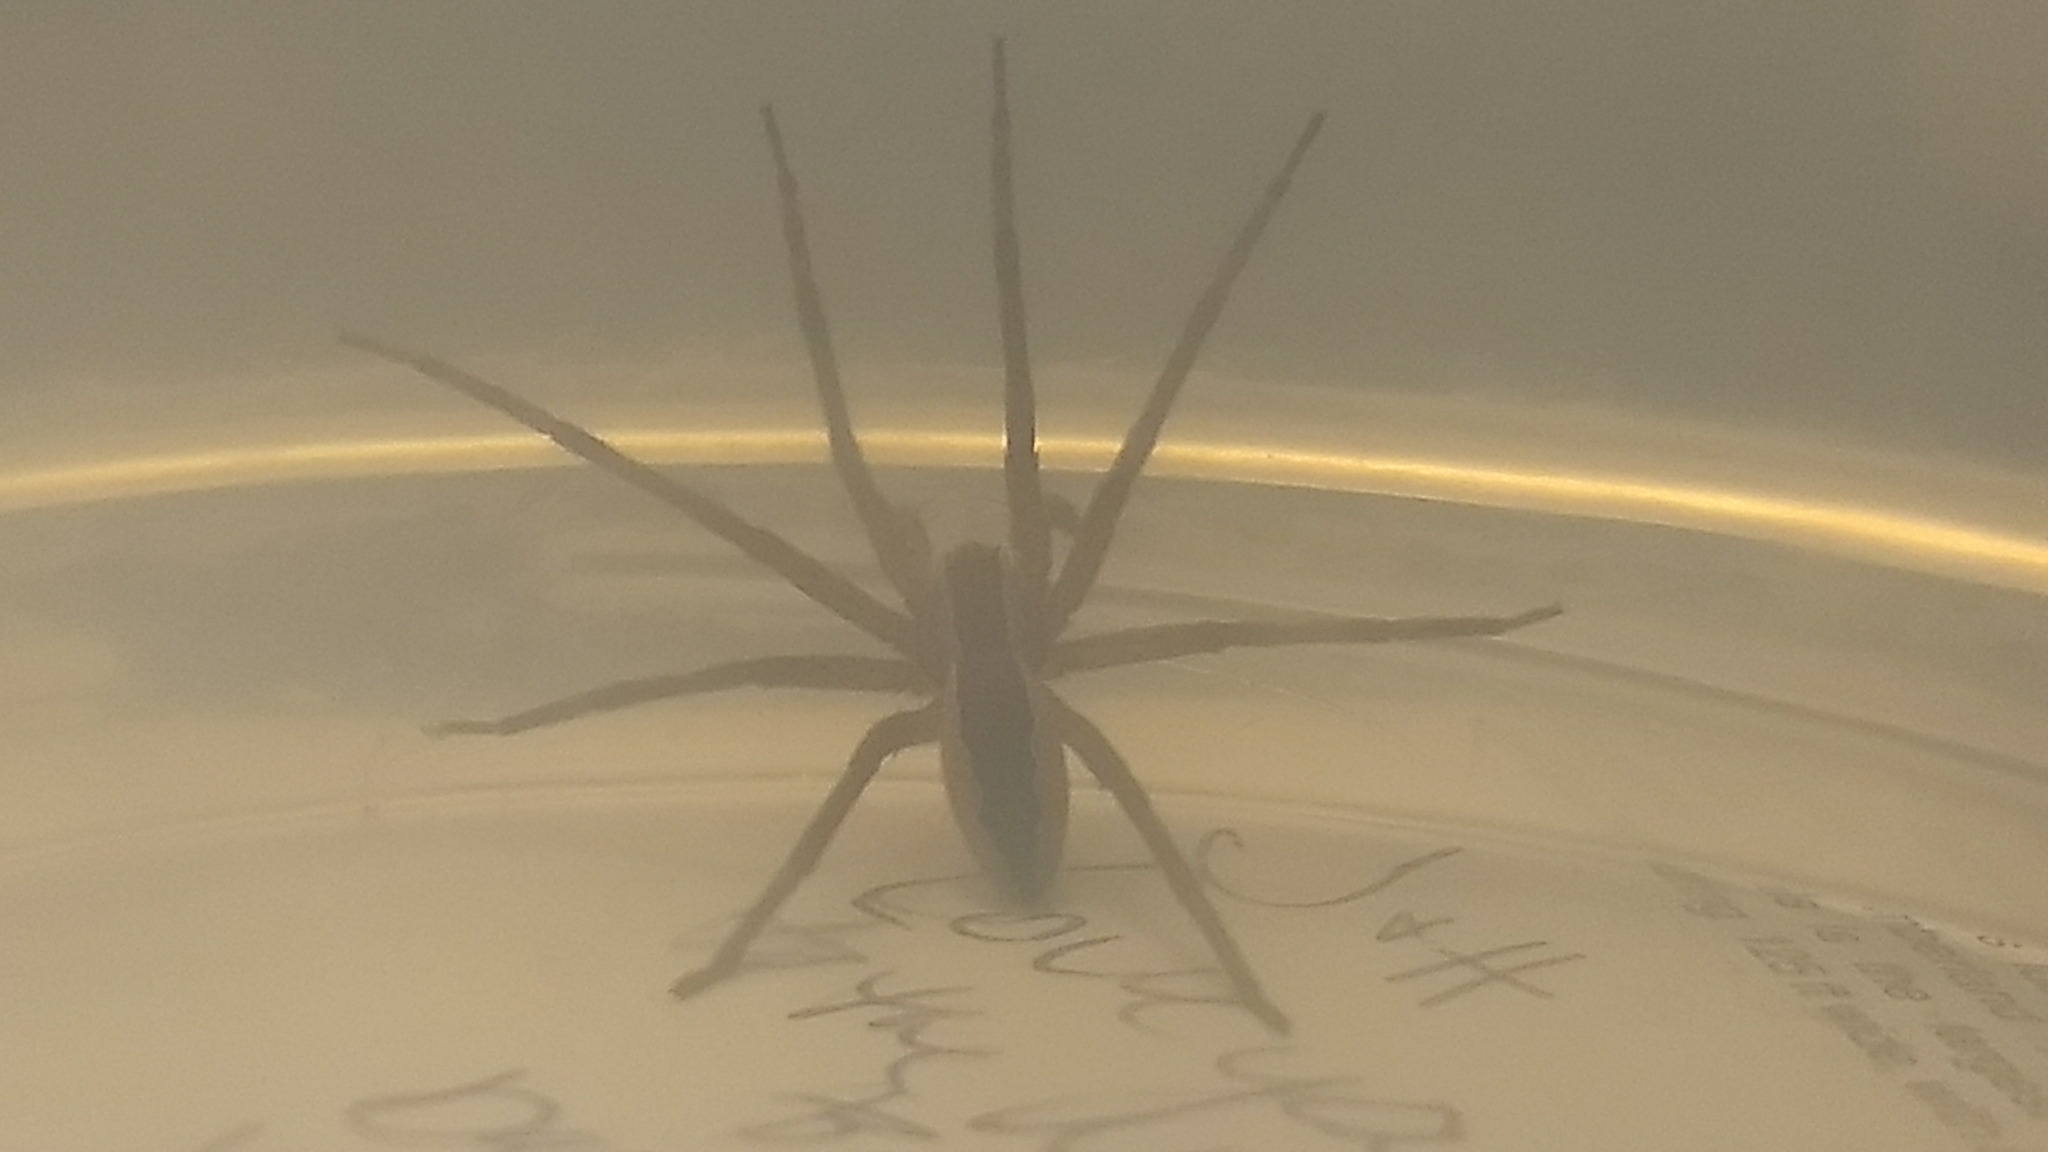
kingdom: Animalia
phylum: Arthropoda
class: Arachnida
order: Araneae
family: Pisauridae
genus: Pisaurina
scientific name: Pisaurina mira
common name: American nursery web spider
